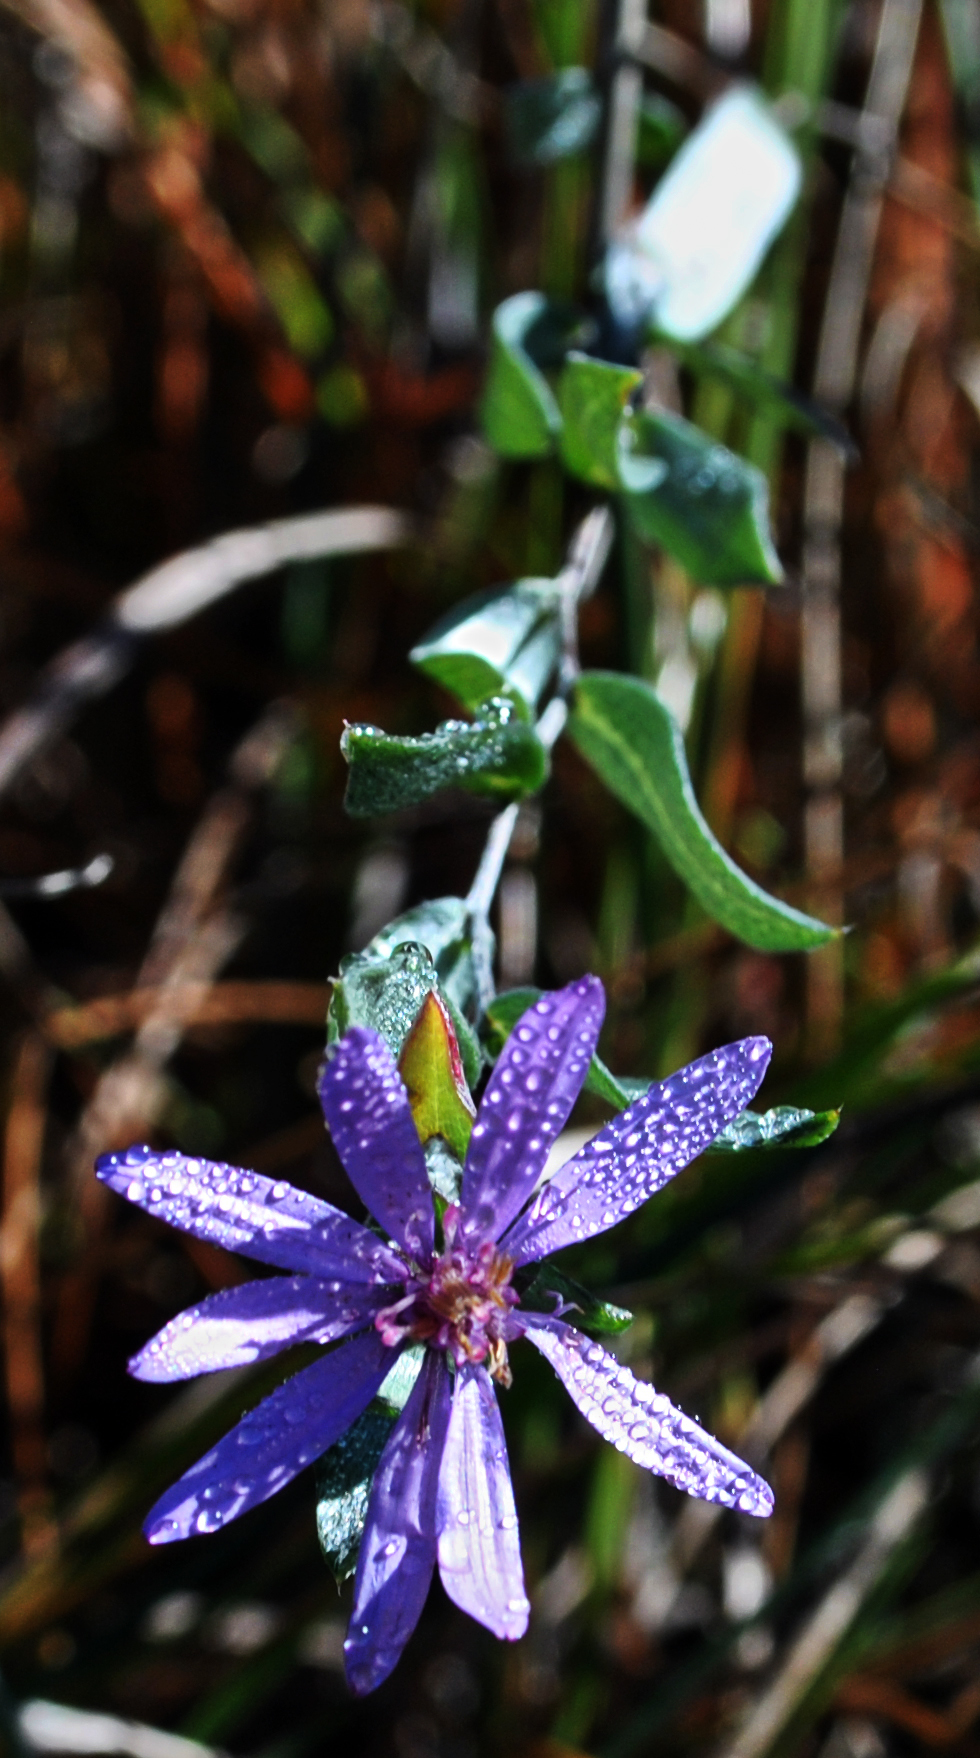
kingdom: Plantae
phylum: Tracheophyta
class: Magnoliopsida
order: Asterales
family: Asteraceae
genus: Symphyotrichum
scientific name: Symphyotrichum sericeum
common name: Silky aster
